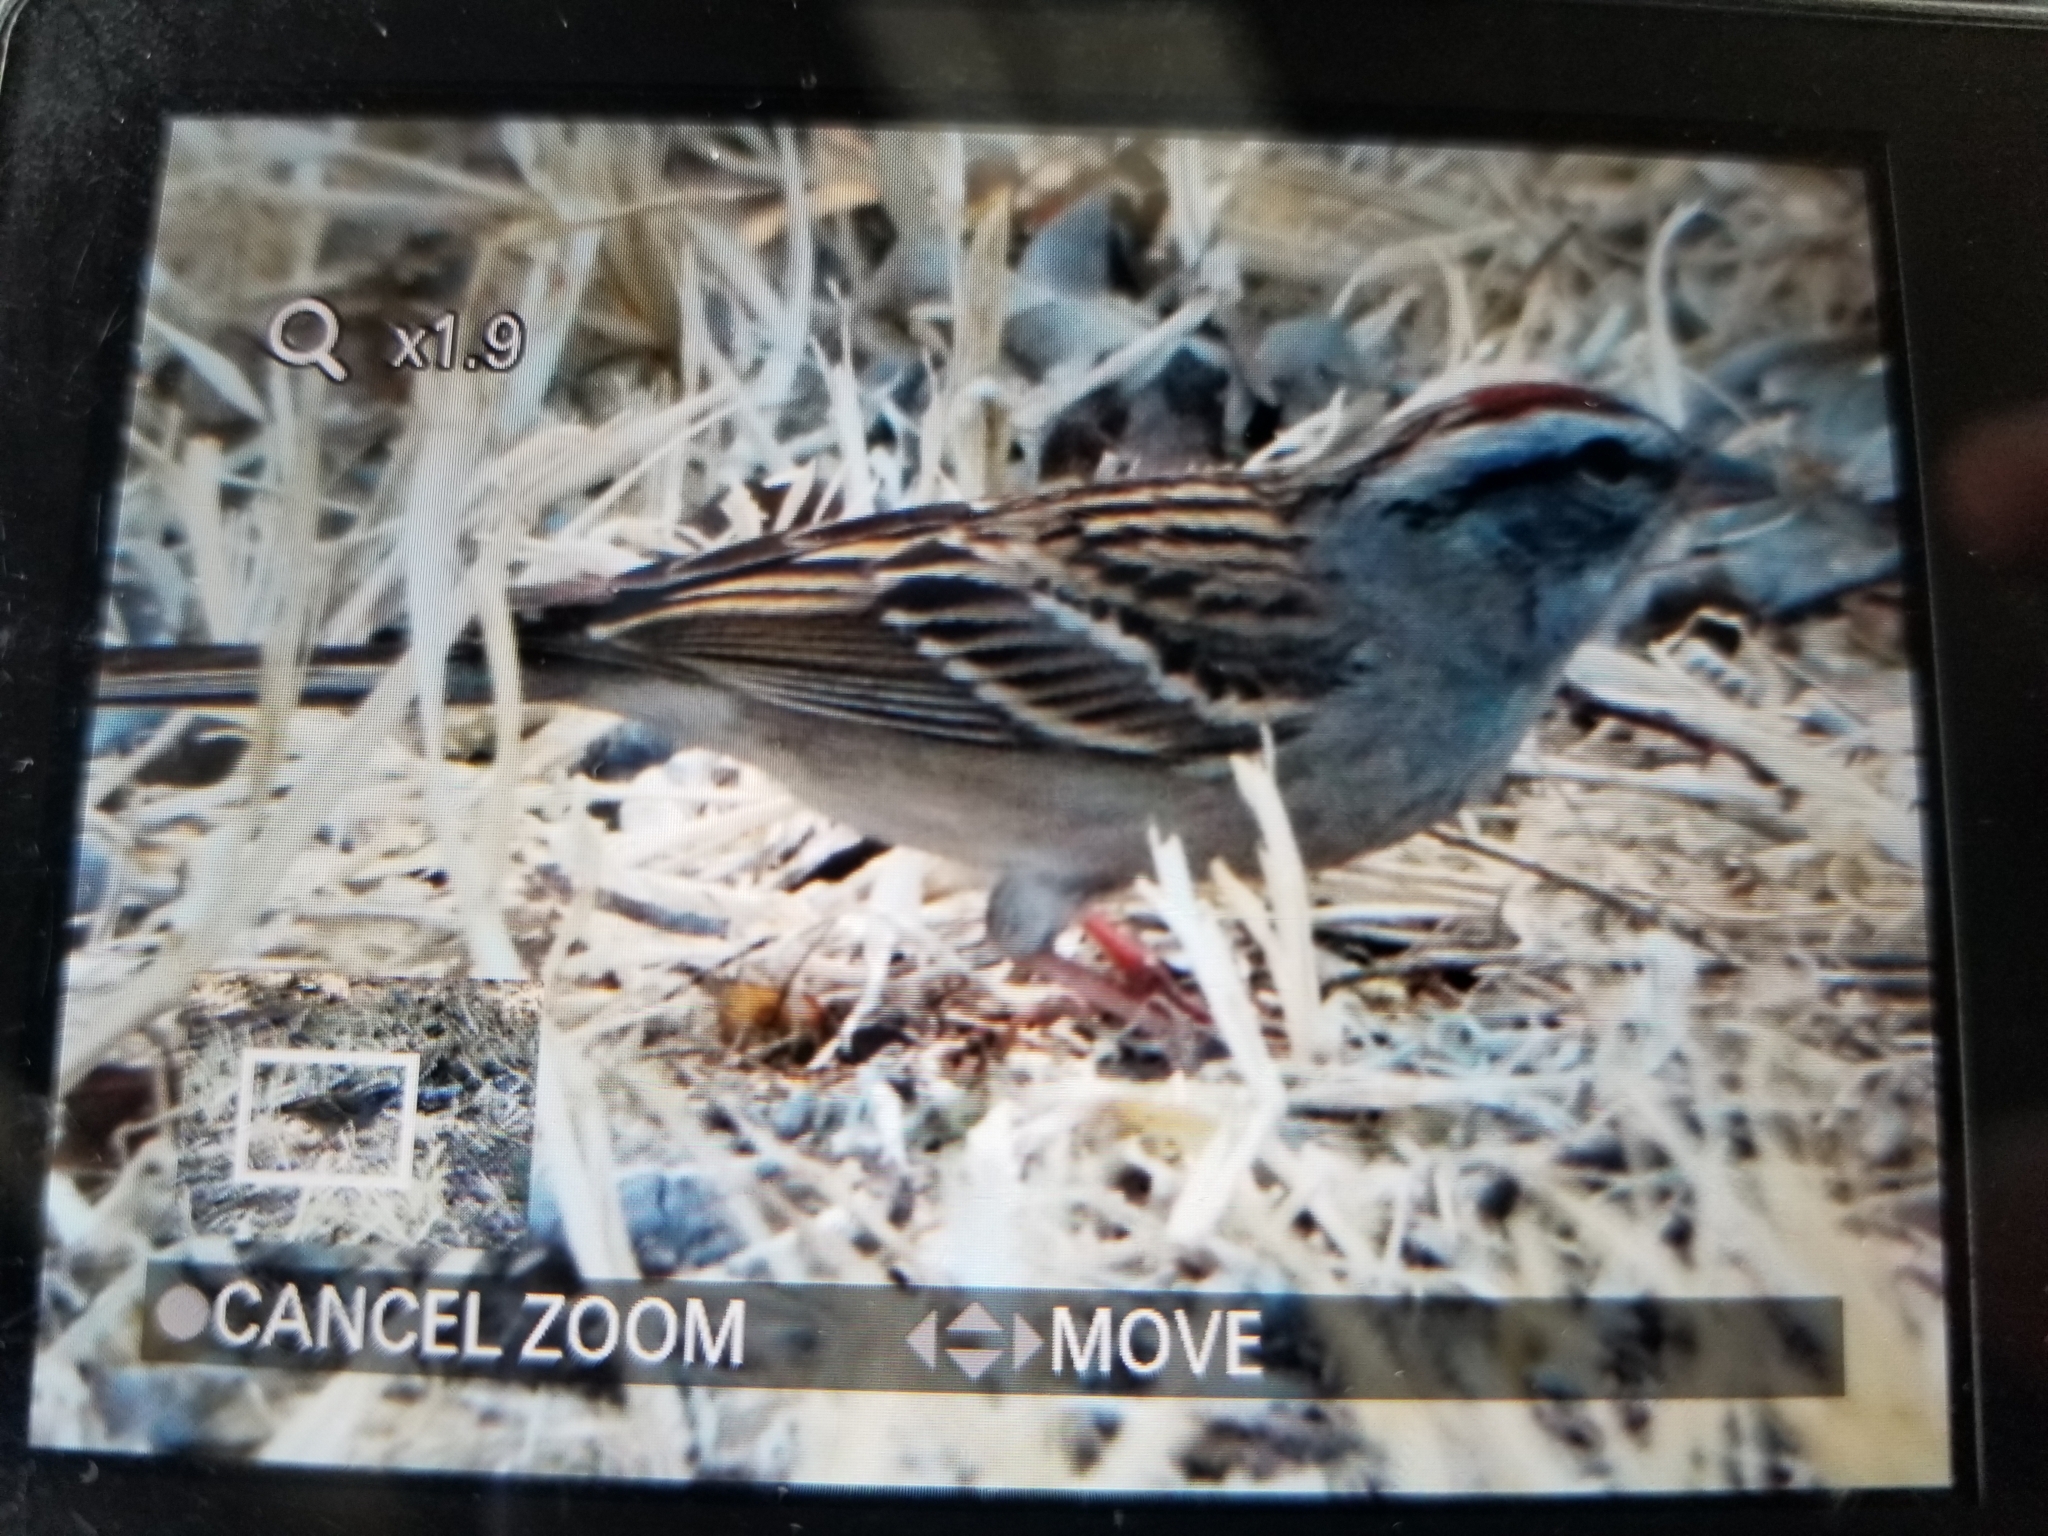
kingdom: Animalia
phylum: Chordata
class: Aves
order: Passeriformes
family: Passerellidae
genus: Spizella
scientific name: Spizella passerina
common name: Chipping sparrow
